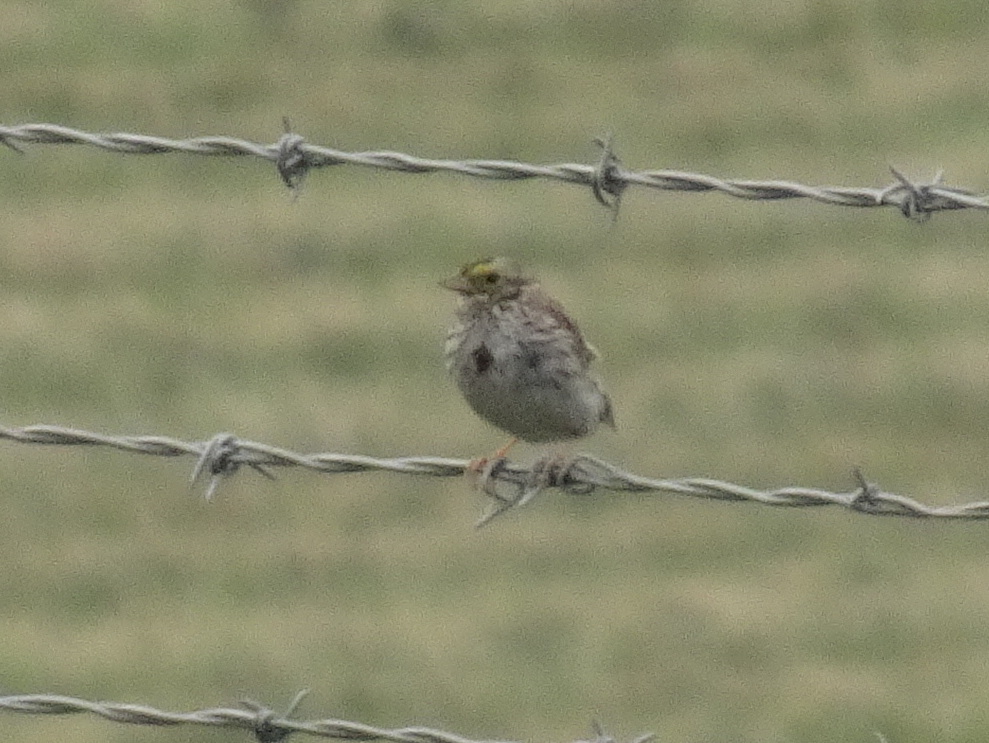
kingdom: Animalia
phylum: Chordata
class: Aves
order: Passeriformes
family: Passerellidae
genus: Passerculus
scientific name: Passerculus sandwichensis
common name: Savannah sparrow
